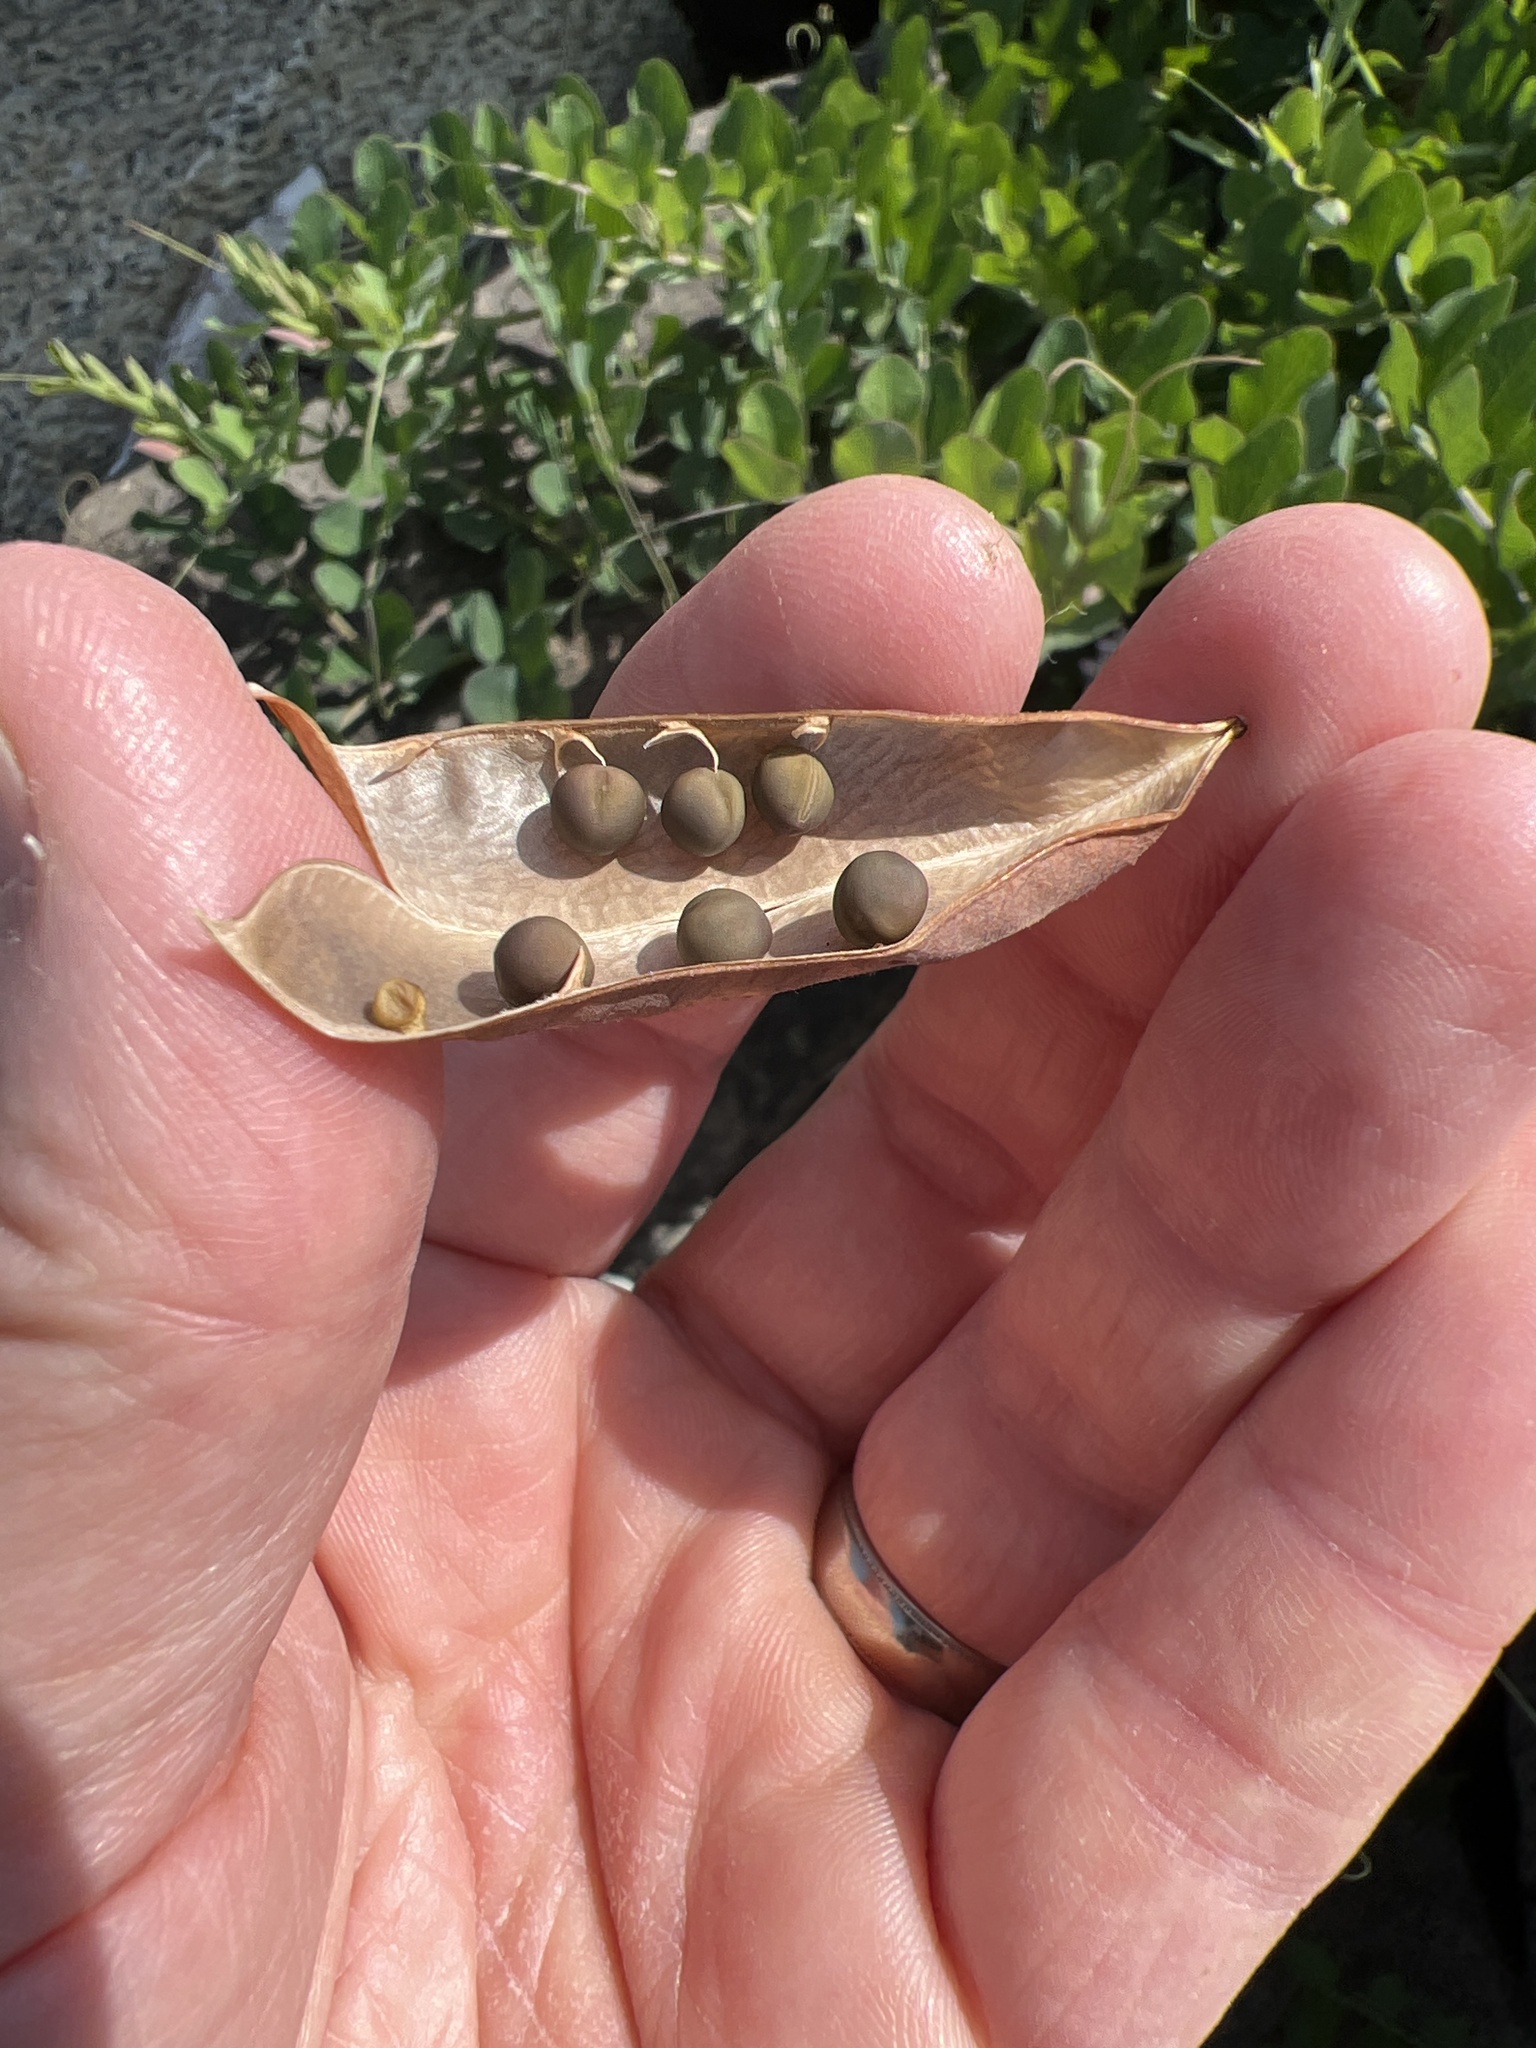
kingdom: Plantae
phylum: Tracheophyta
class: Magnoliopsida
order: Fabales
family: Fabaceae
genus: Lathyrus
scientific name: Lathyrus japonicus
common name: Sea pea
